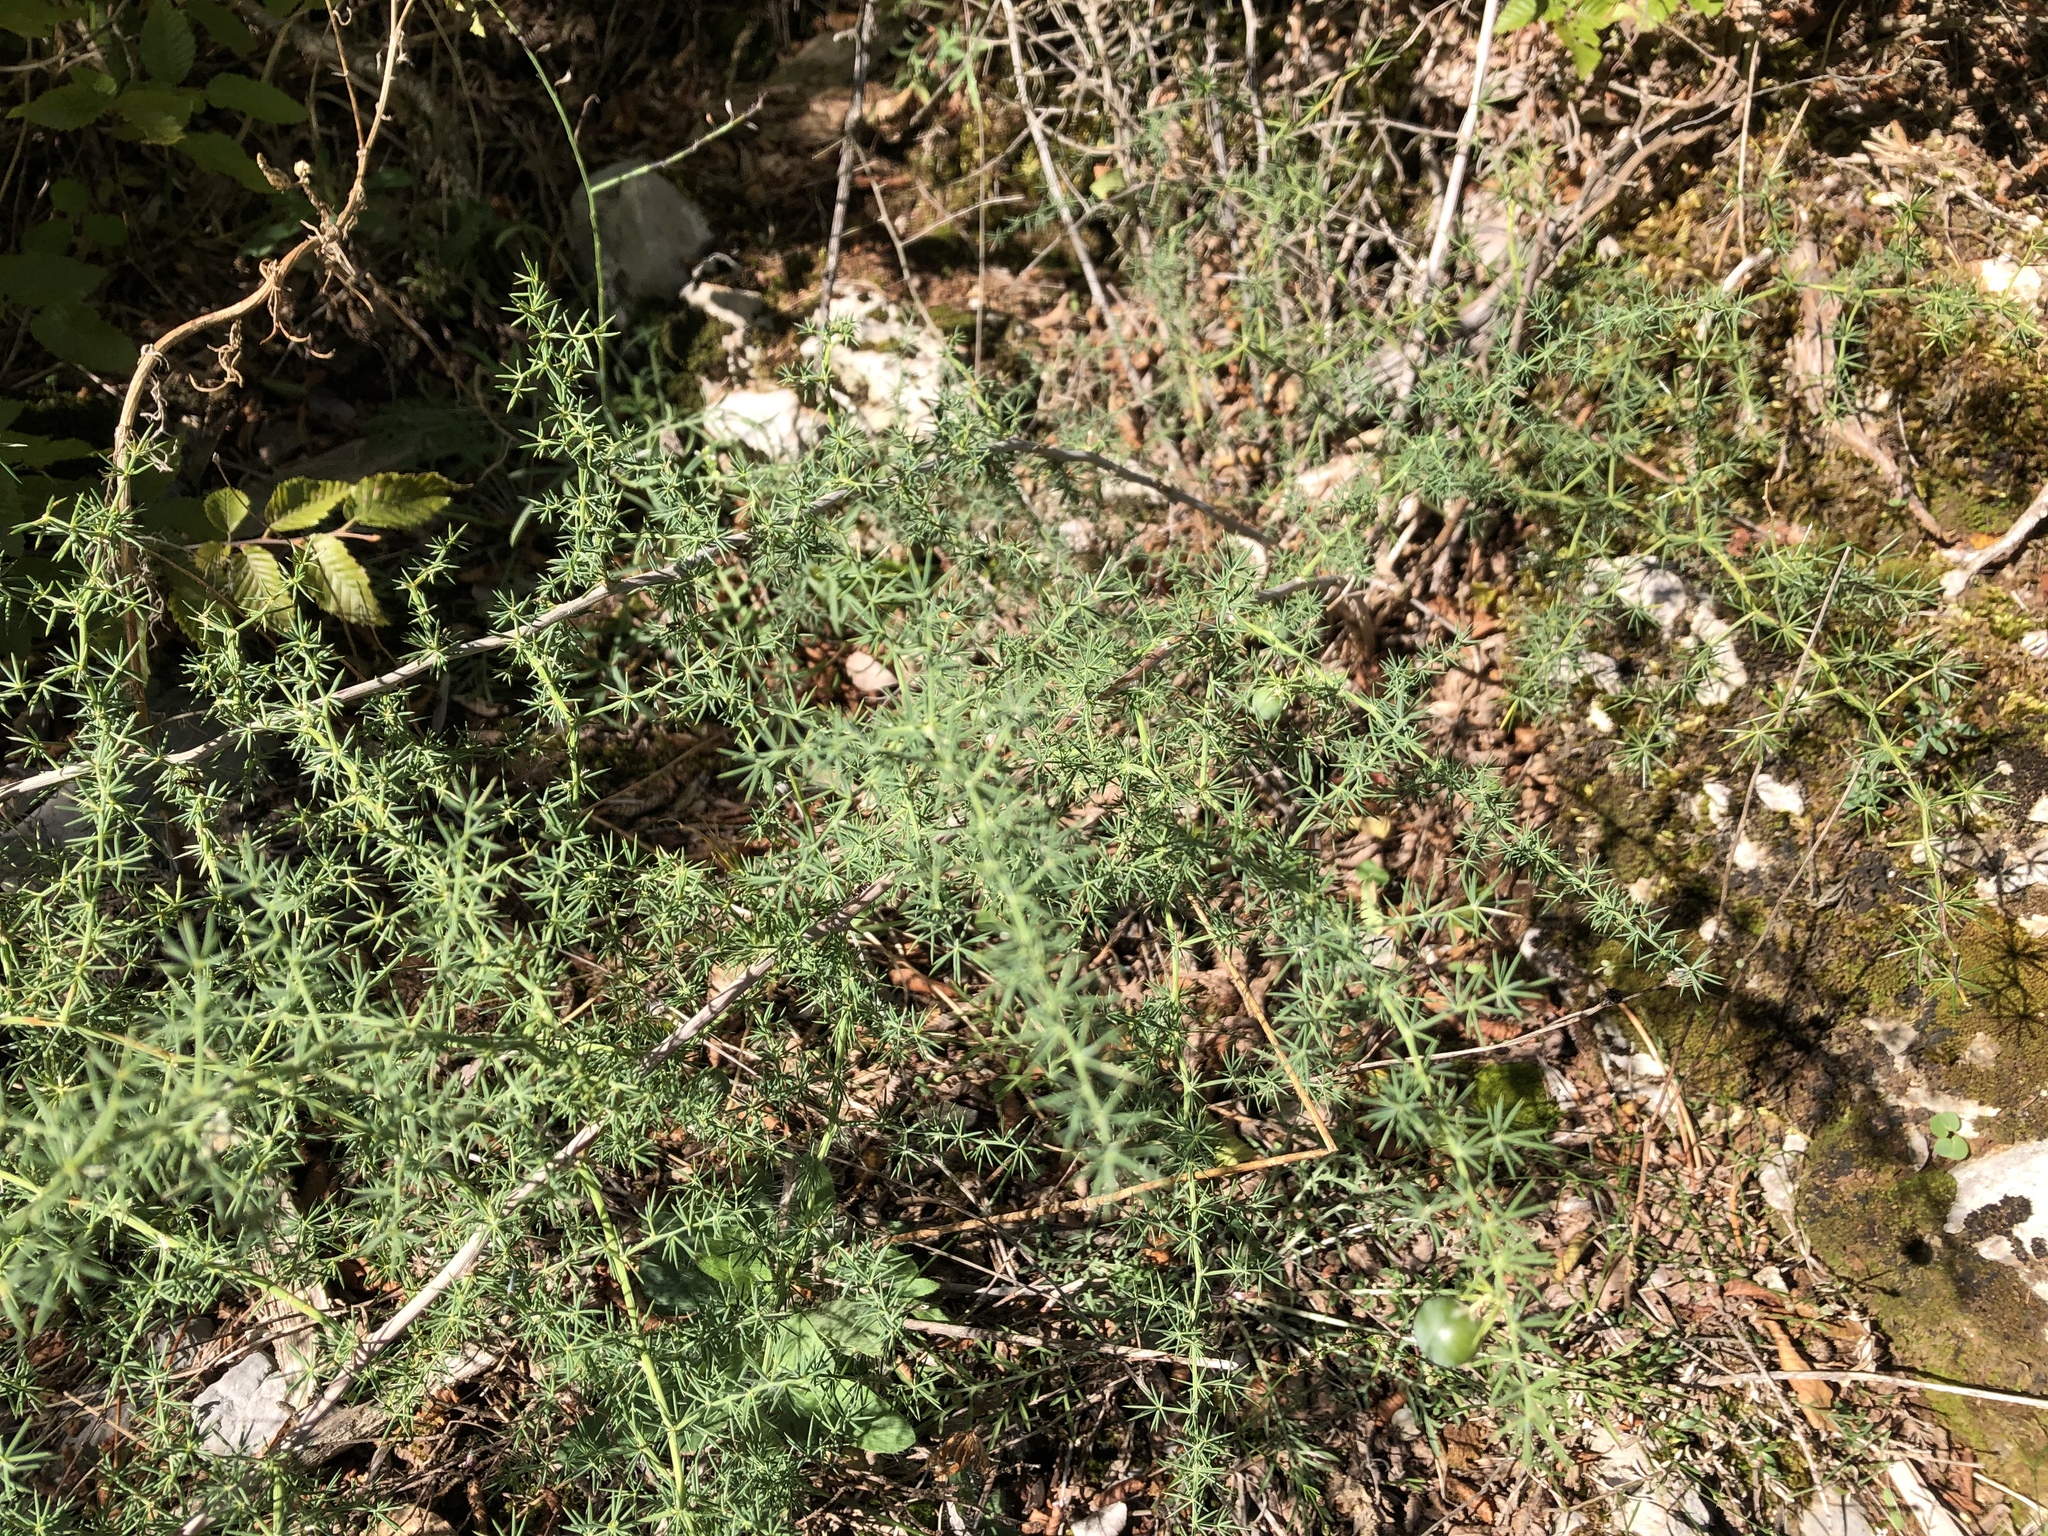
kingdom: Plantae
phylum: Tracheophyta
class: Liliopsida
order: Asparagales
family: Asparagaceae
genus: Asparagus
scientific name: Asparagus acutifolius
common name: Wild asparagus
